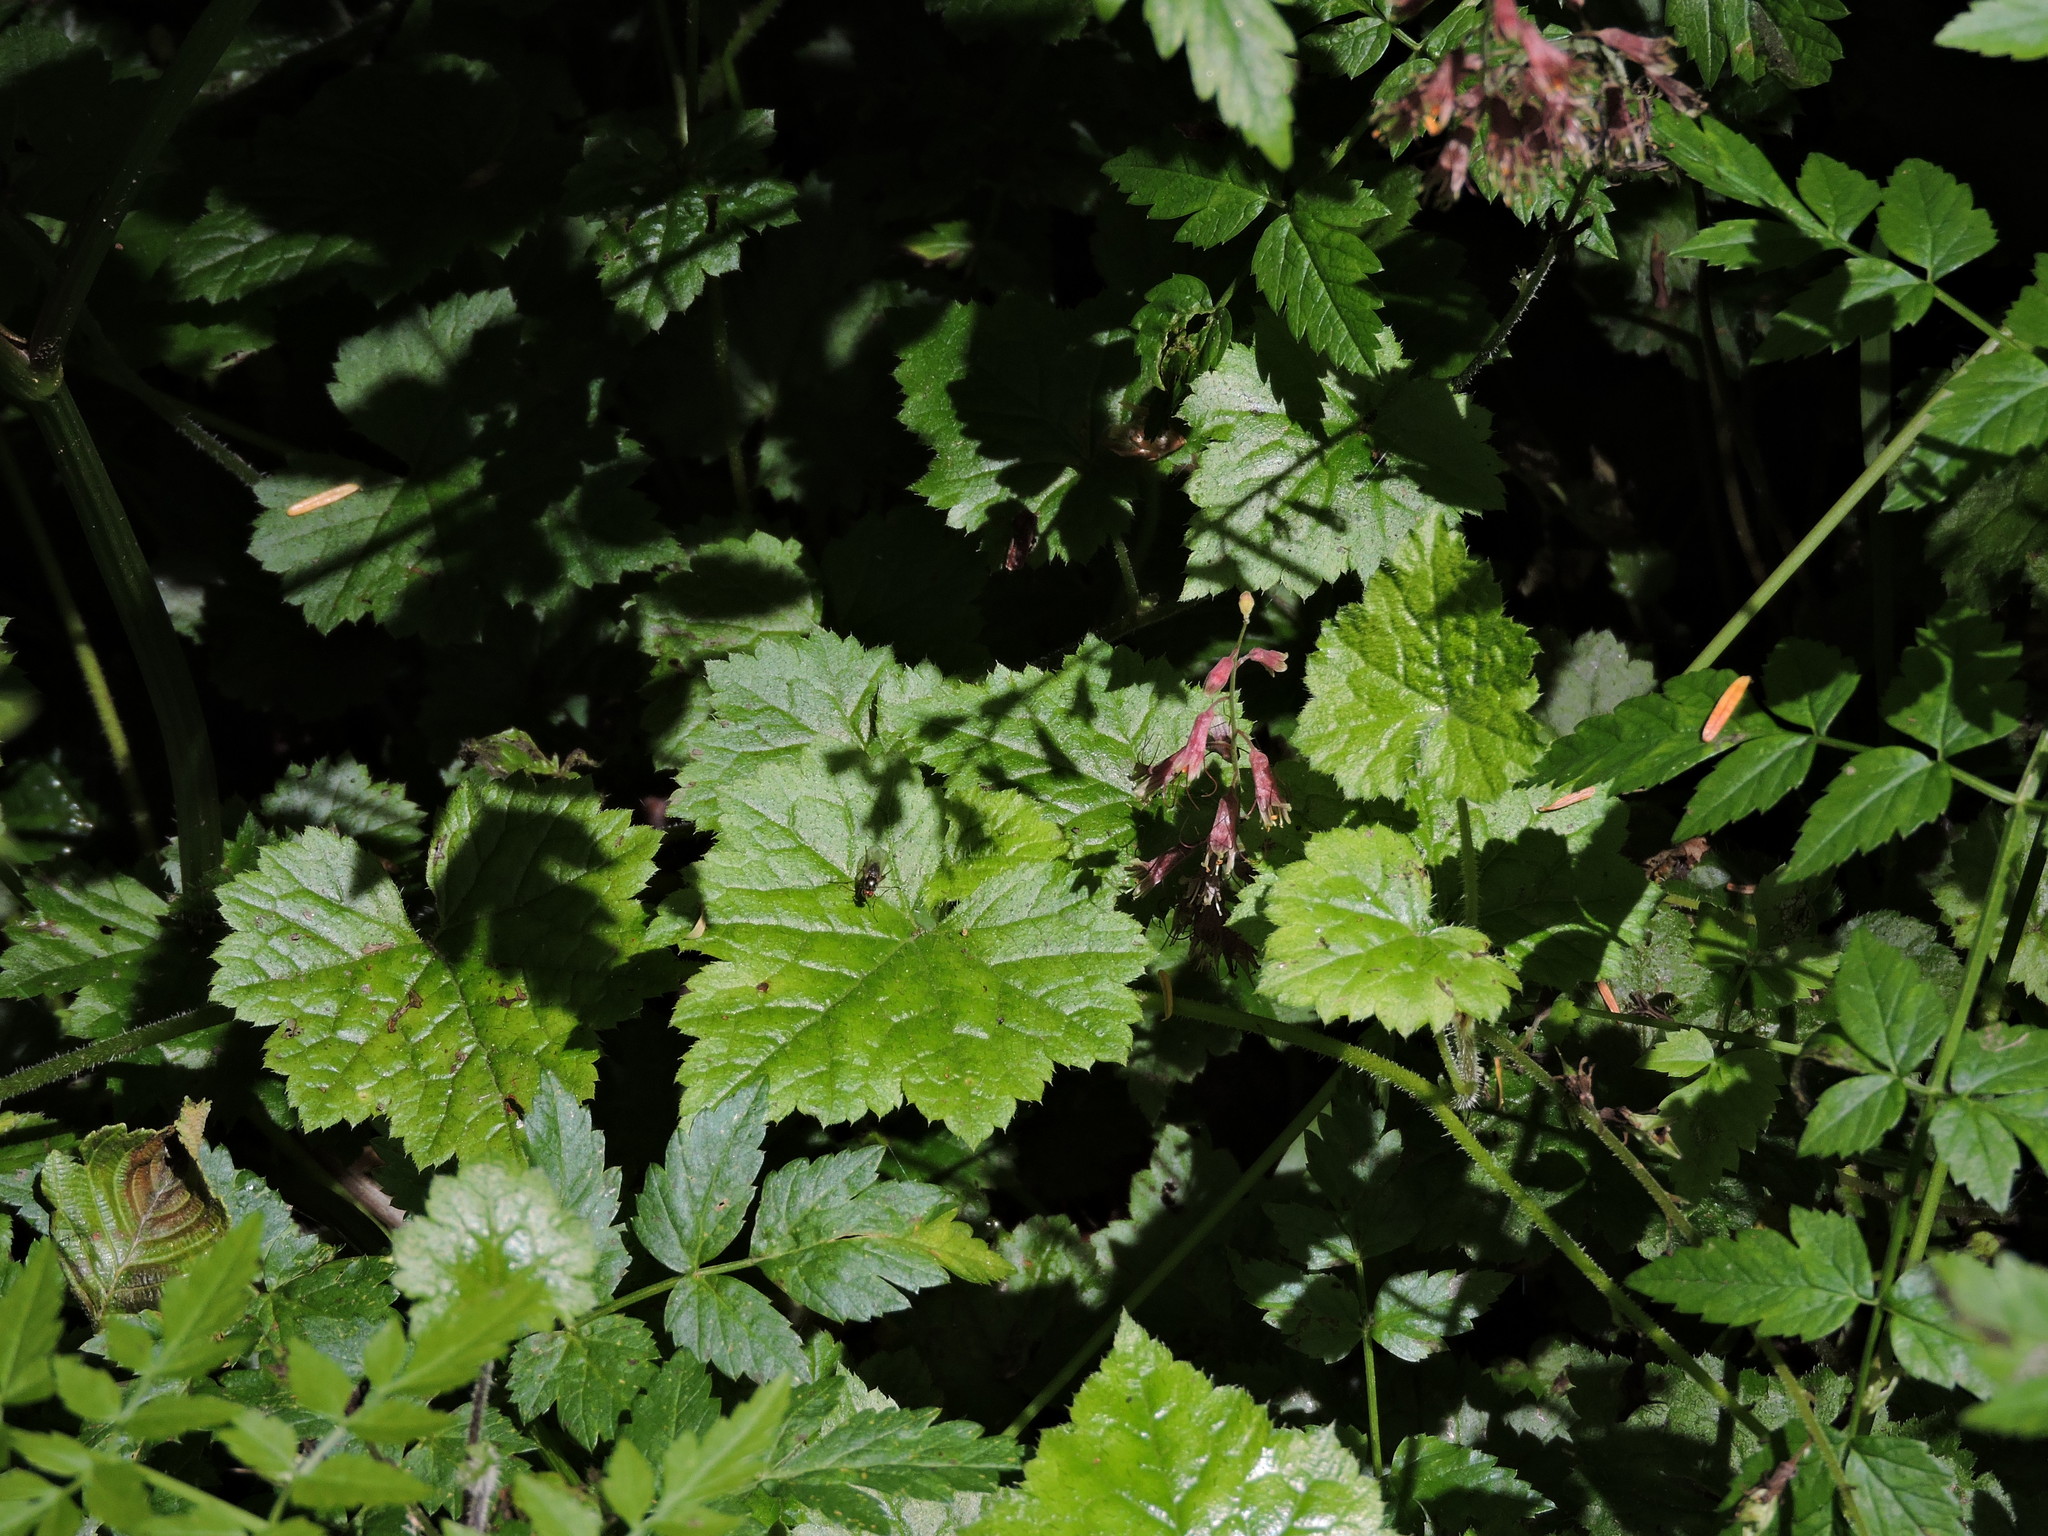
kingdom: Plantae
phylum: Tracheophyta
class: Magnoliopsida
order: Saxifragales
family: Saxifragaceae
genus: Tolmiea
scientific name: Tolmiea menziesii
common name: Pick-a-back-plant
